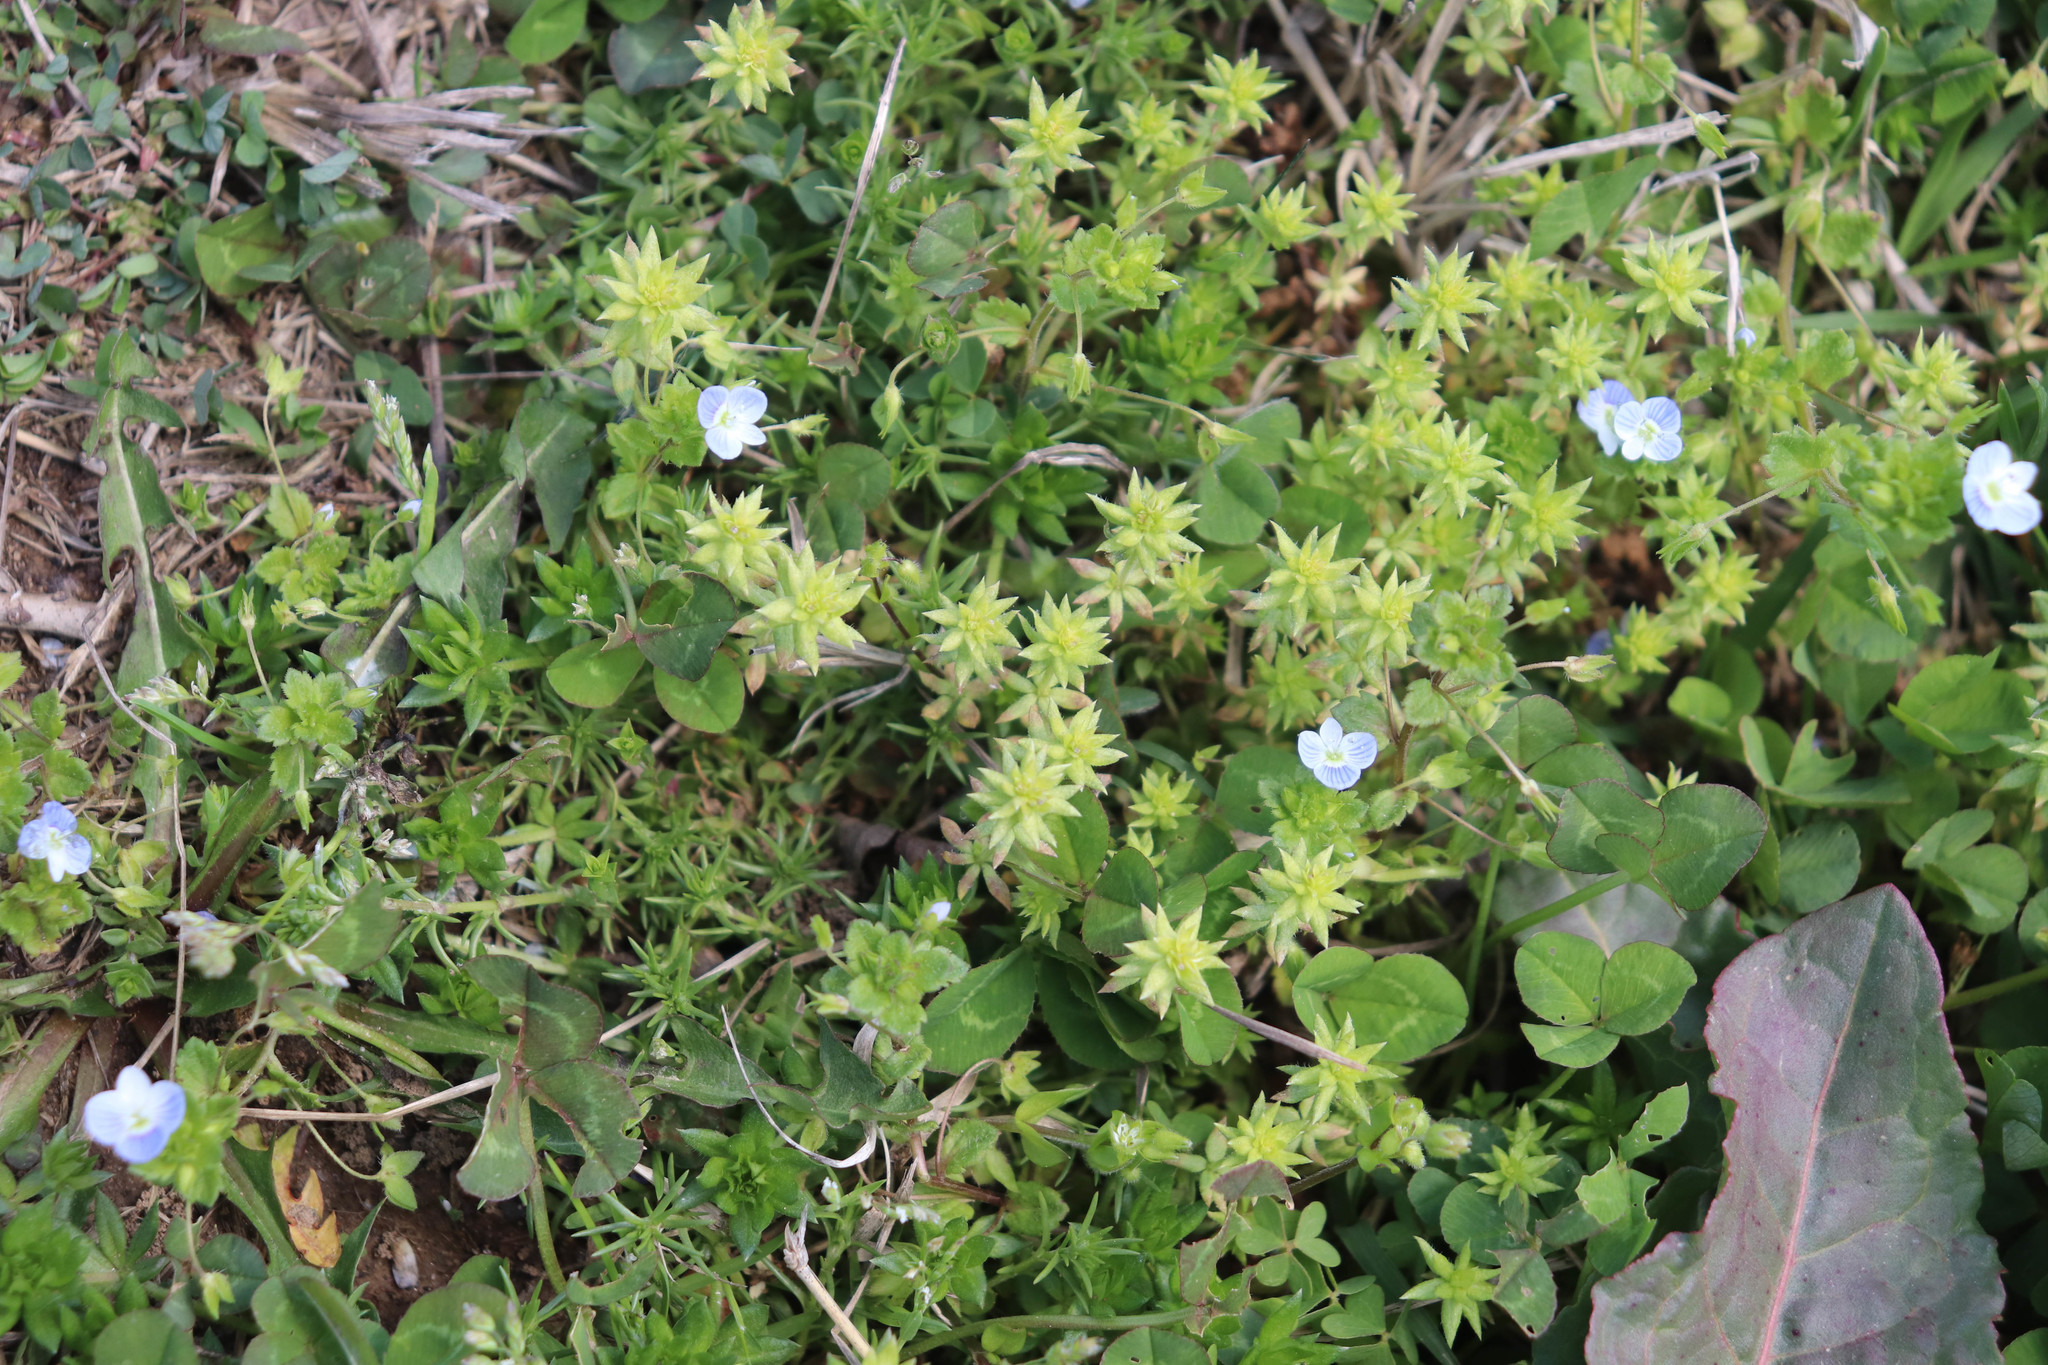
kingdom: Plantae
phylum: Tracheophyta
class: Magnoliopsida
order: Gentianales
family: Rubiaceae
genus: Sherardia
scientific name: Sherardia arvensis
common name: Field madder
